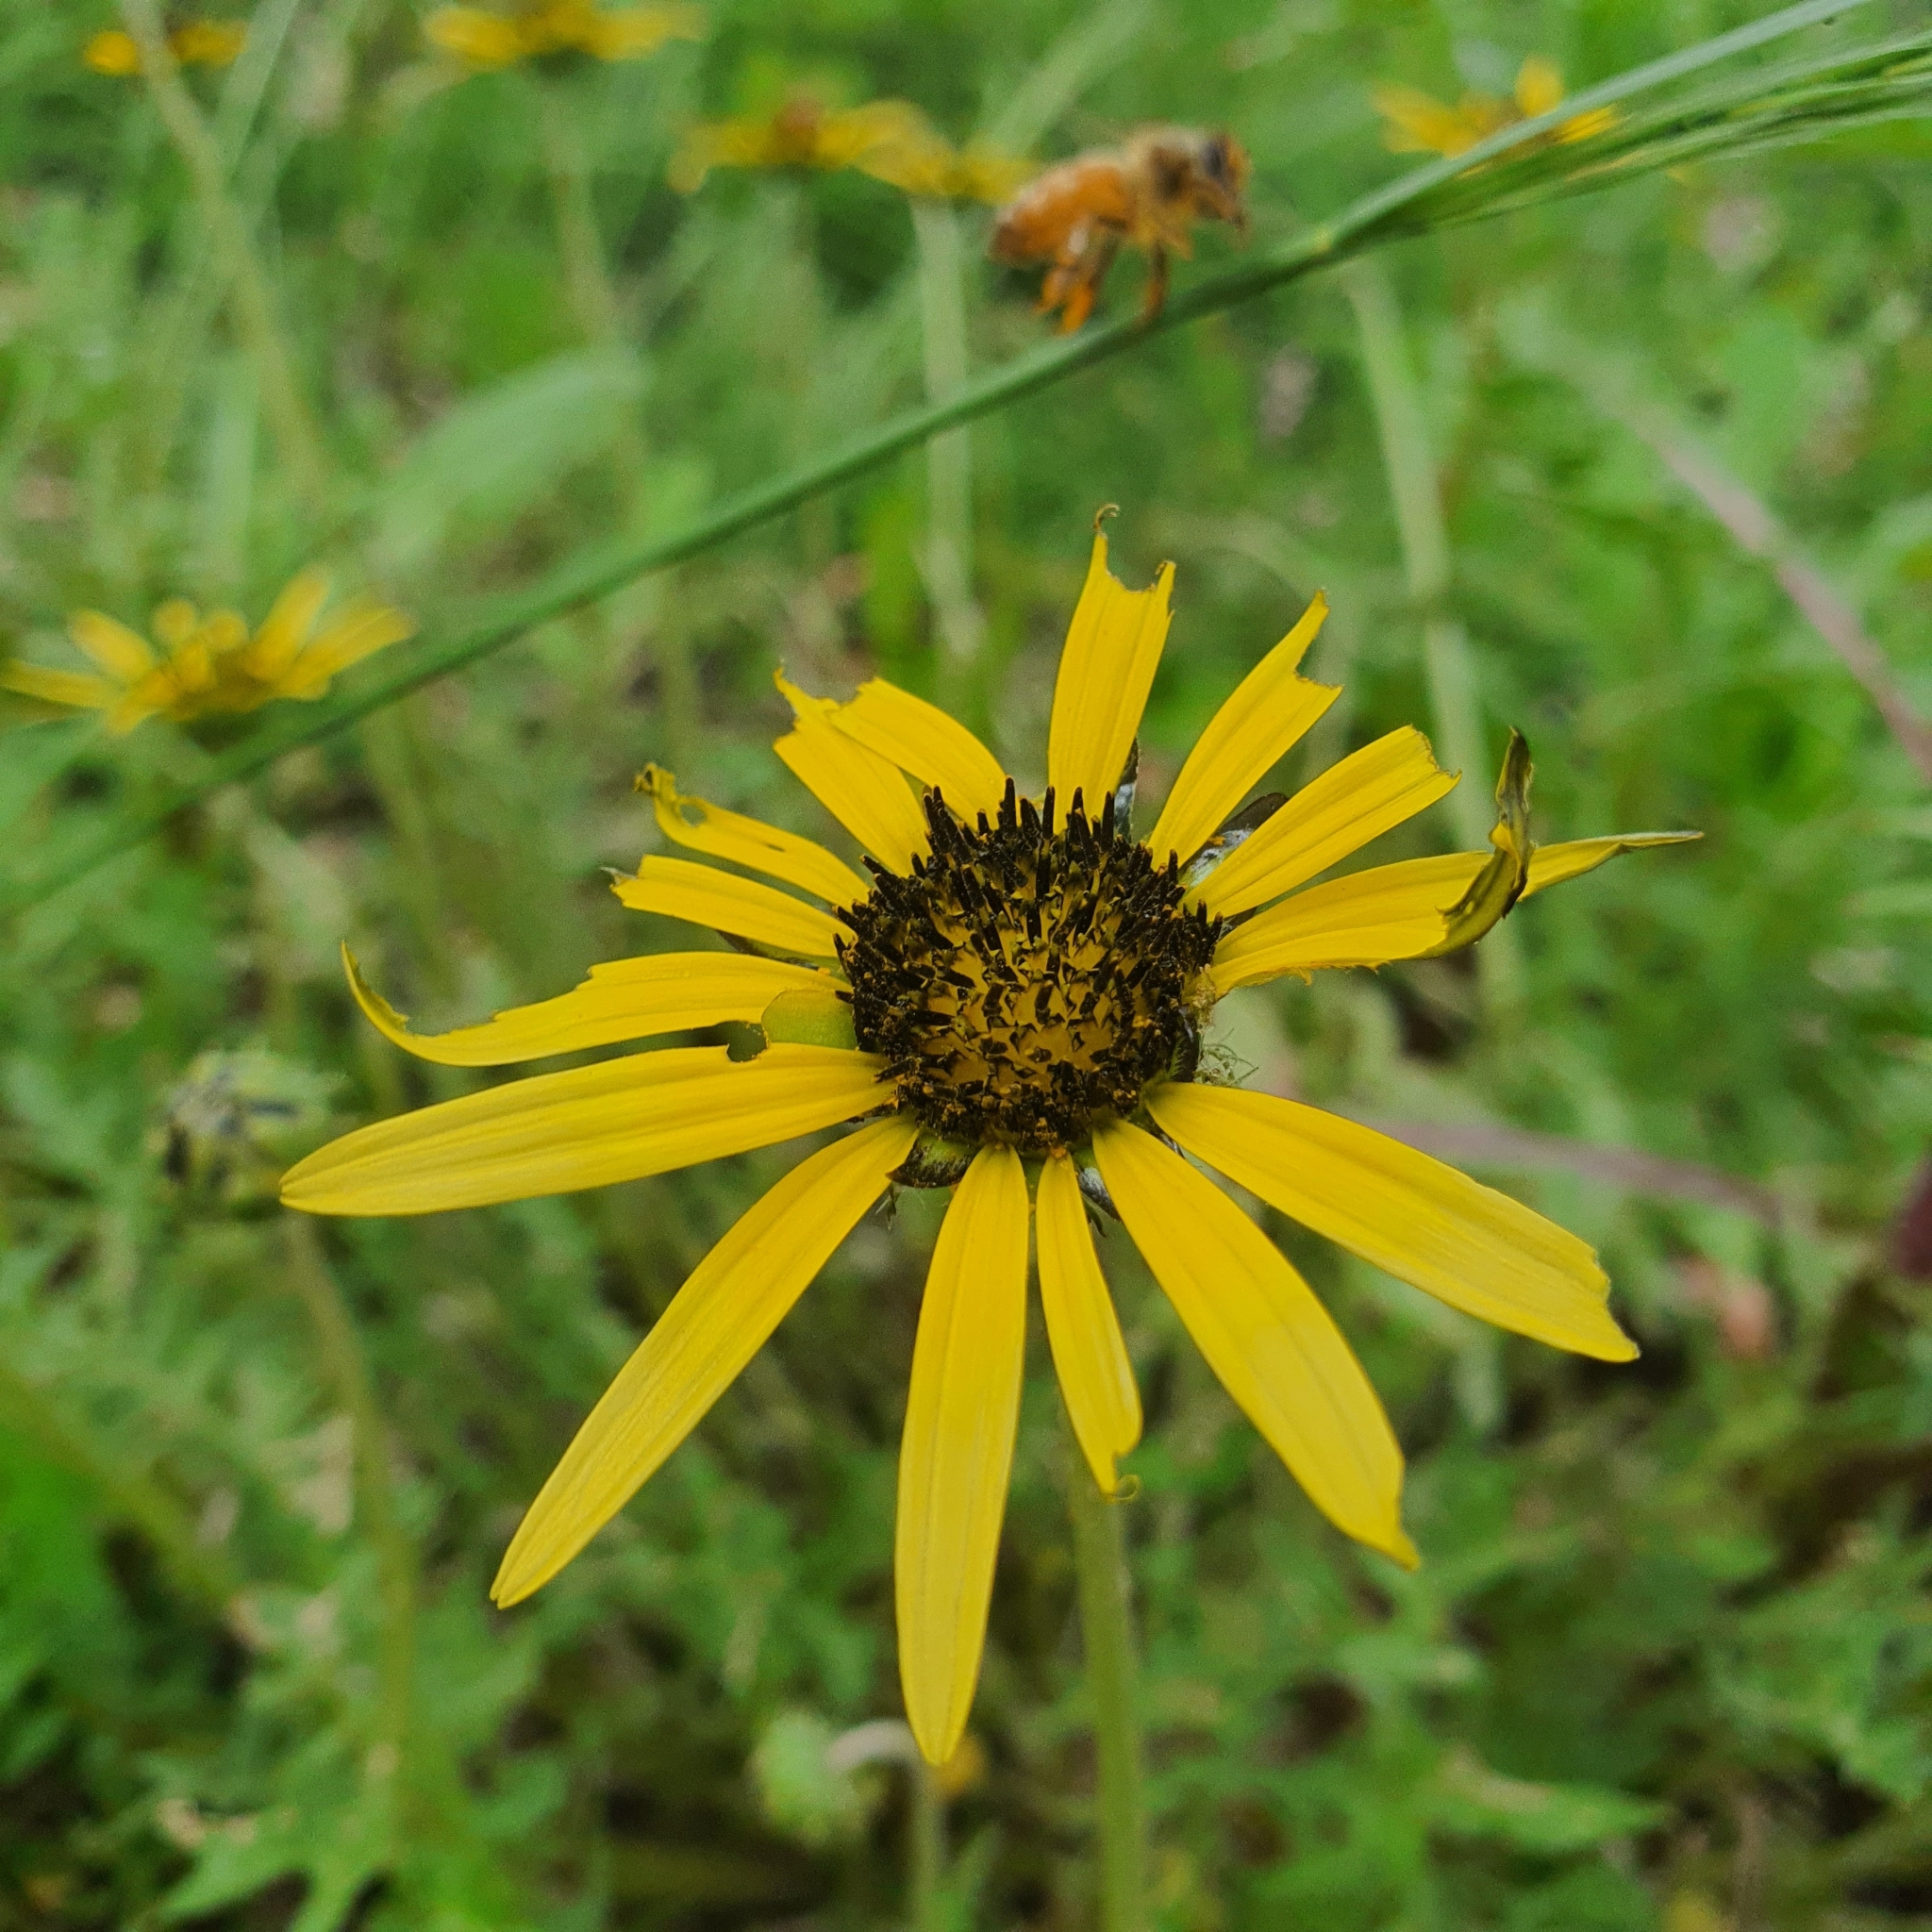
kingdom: Plantae
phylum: Tracheophyta
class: Magnoliopsida
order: Asterales
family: Asteraceae
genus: Arctotheca
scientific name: Arctotheca calendula
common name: Capeweed
